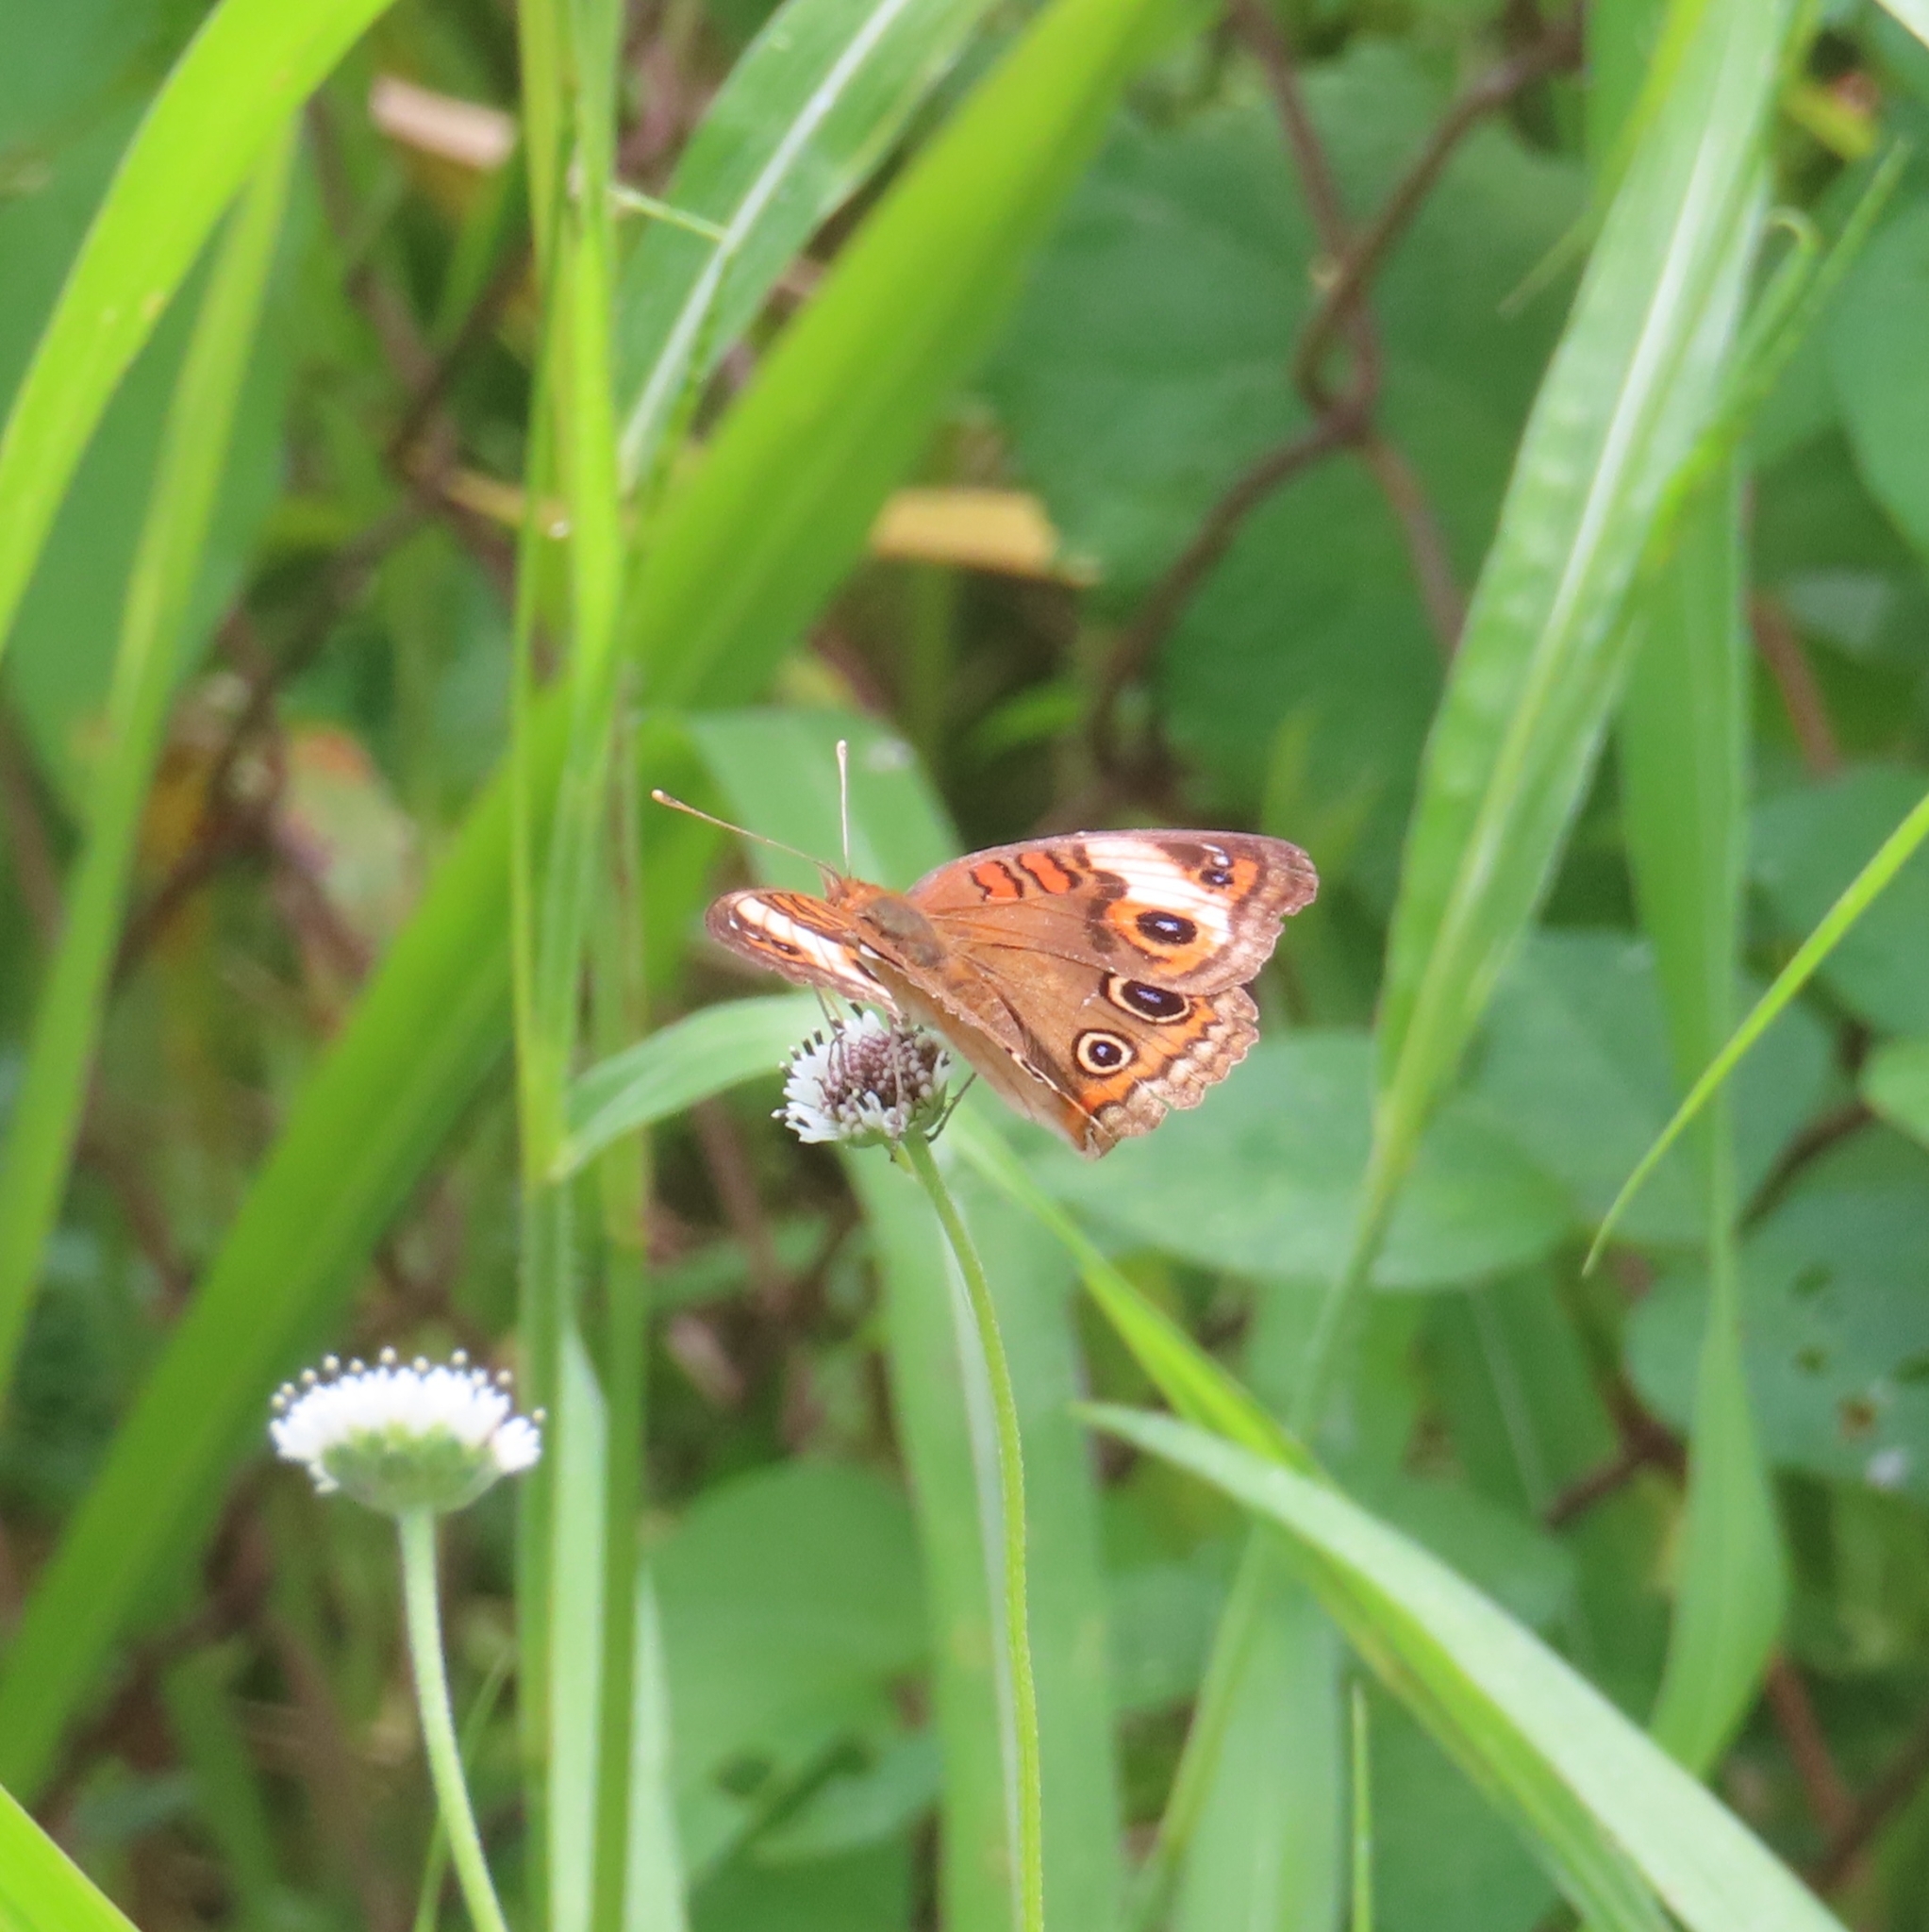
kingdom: Animalia
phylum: Arthropoda
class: Insecta
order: Lepidoptera
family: Nymphalidae
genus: Junonia
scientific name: Junonia lavinia
